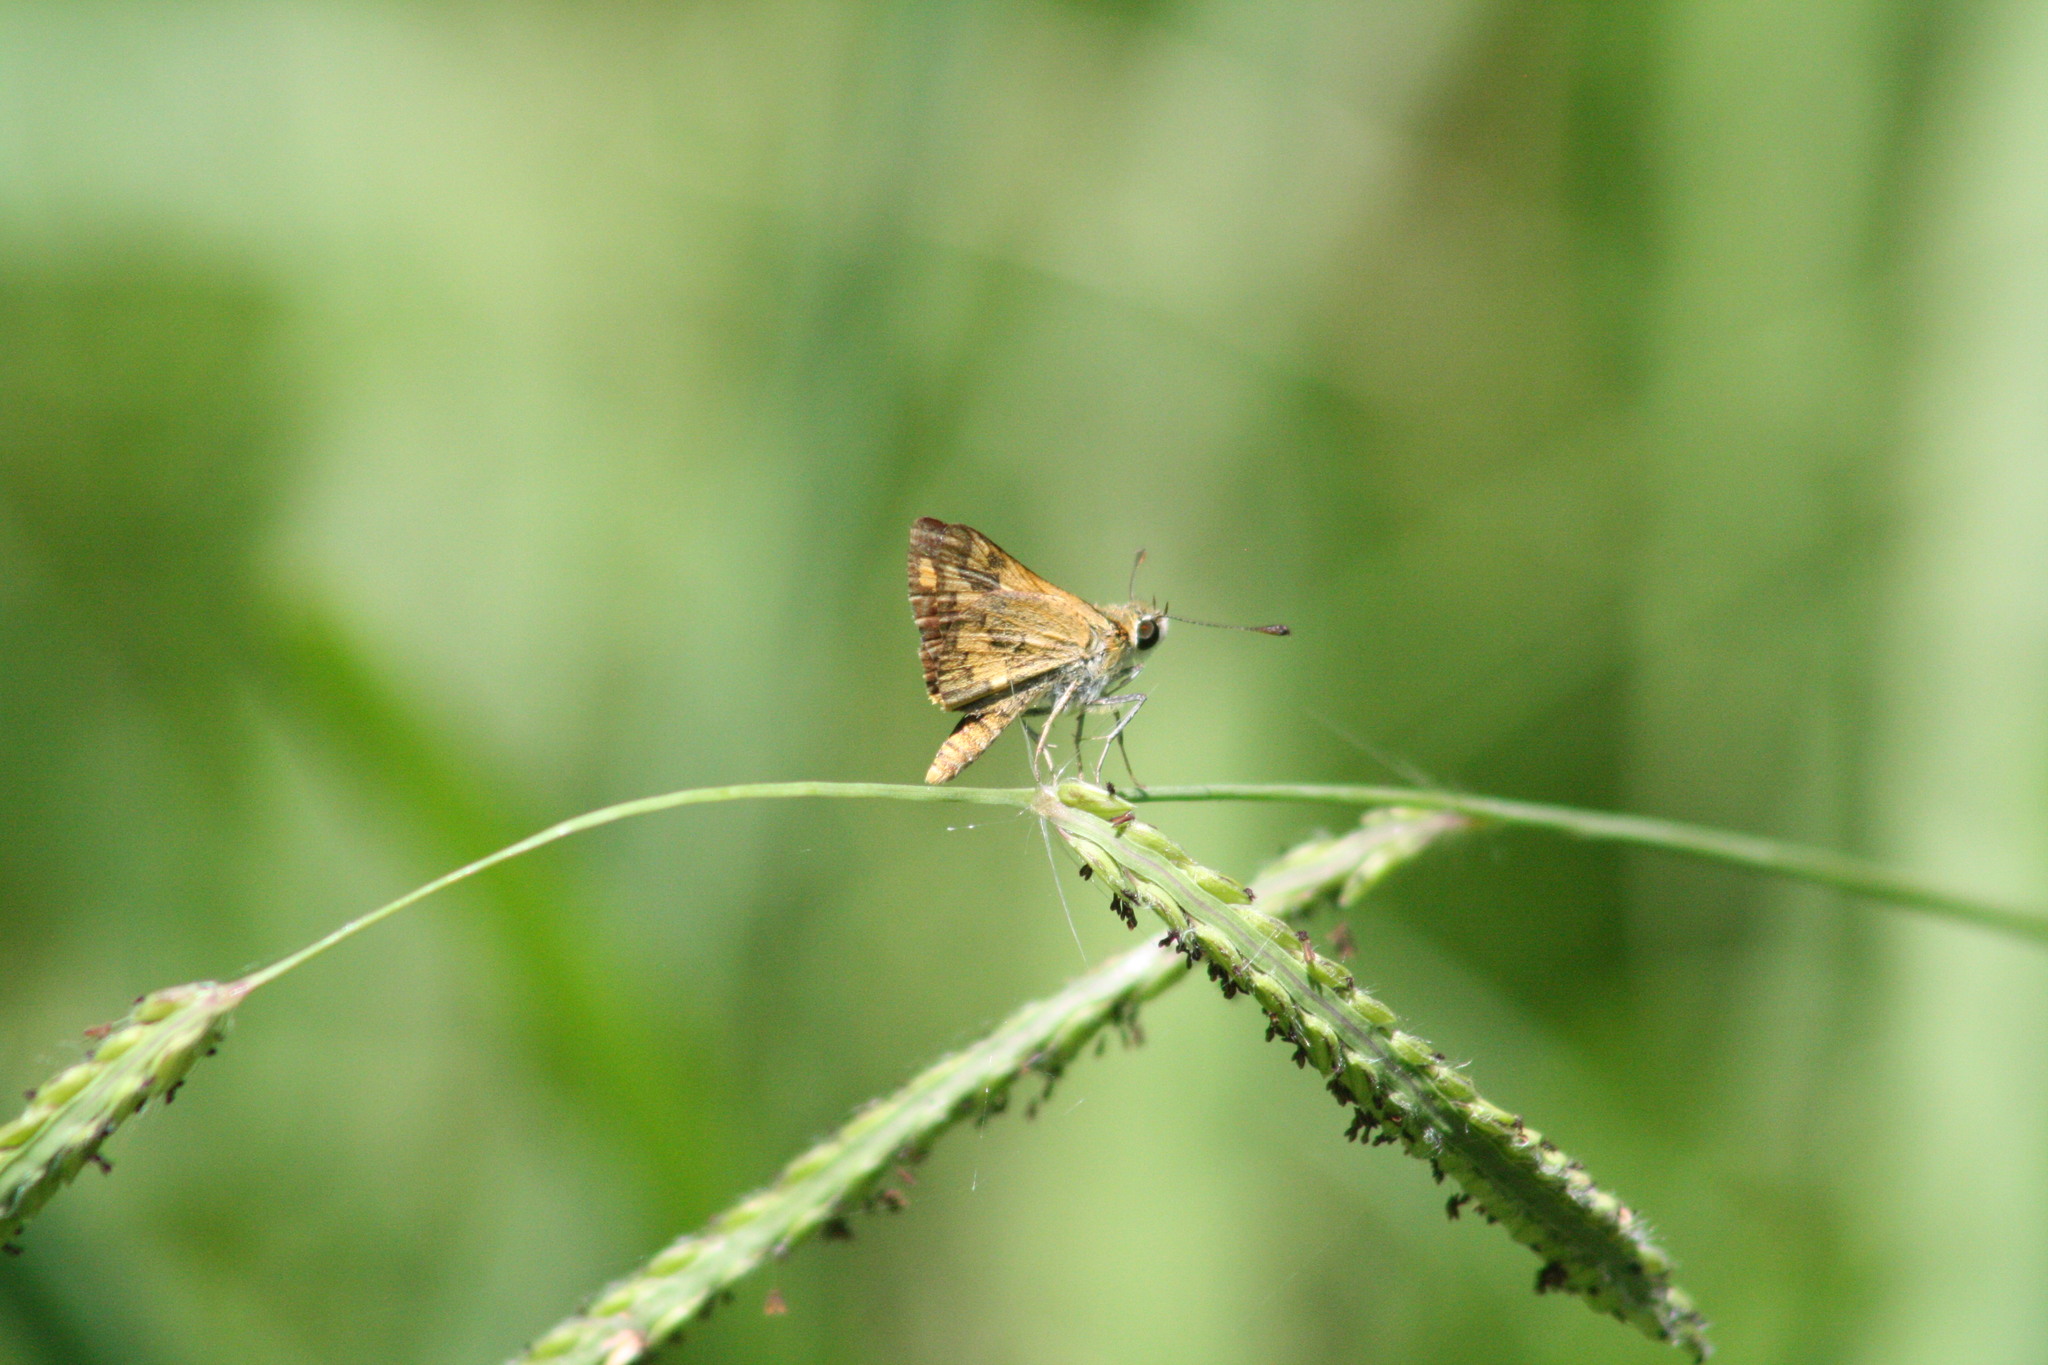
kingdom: Animalia
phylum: Arthropoda
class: Insecta
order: Lepidoptera
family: Hesperiidae
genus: Ocybadistes
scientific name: Ocybadistes flavovittata
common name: Narrow-brand grass-dart
